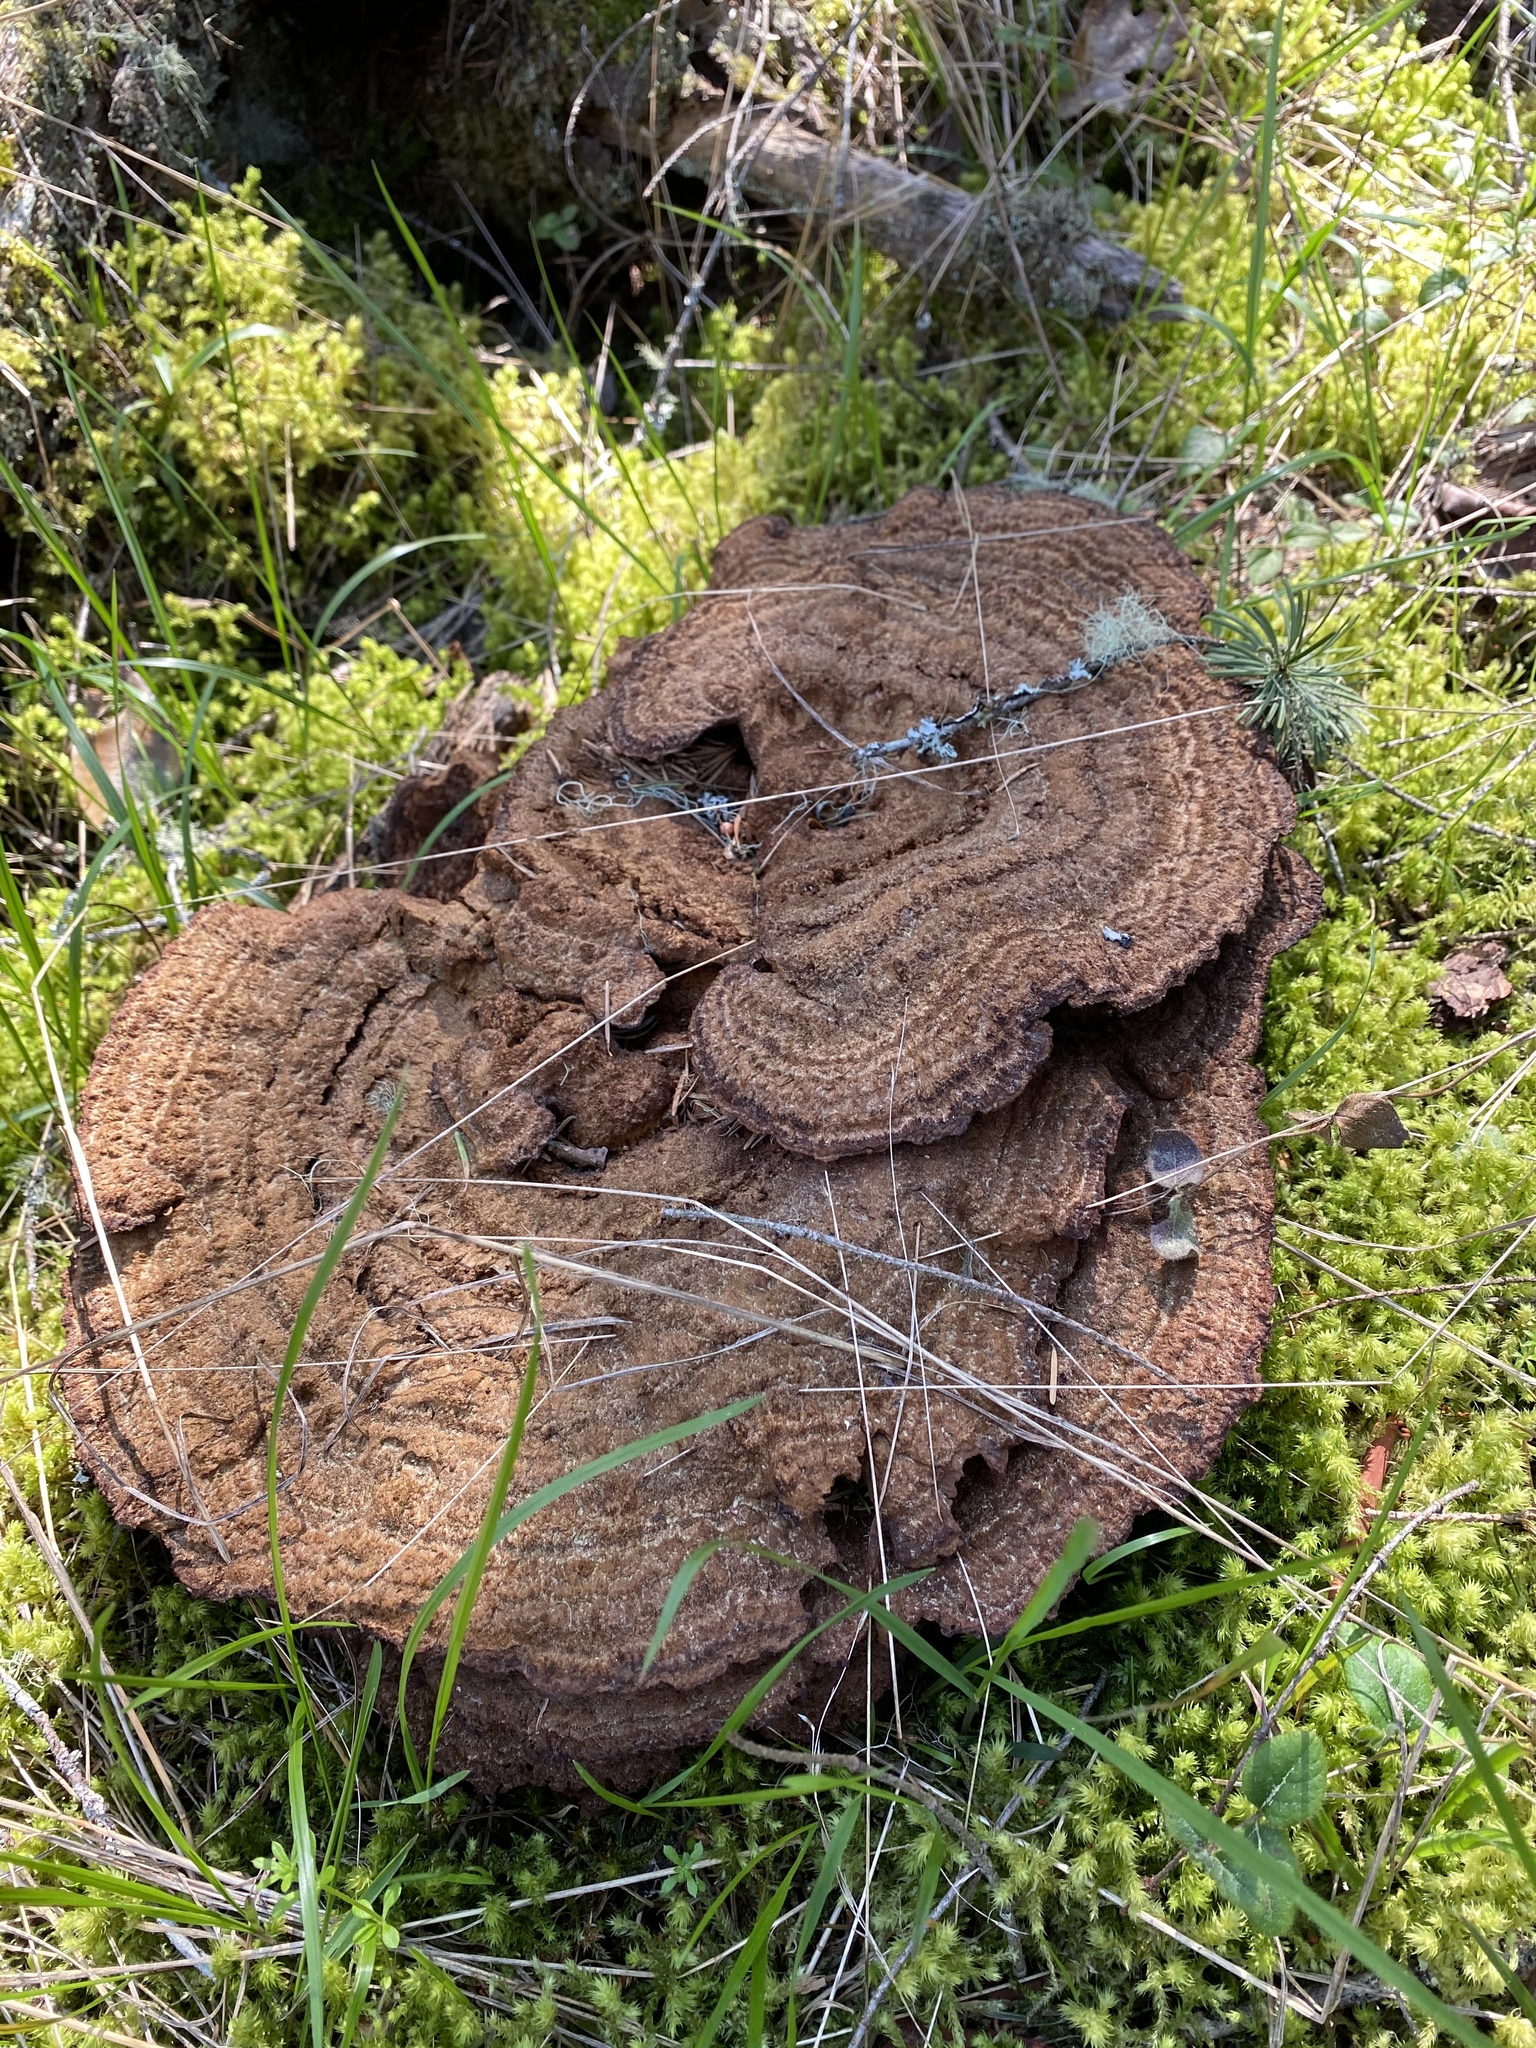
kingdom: Fungi
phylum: Basidiomycota
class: Agaricomycetes
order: Polyporales
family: Laetiporaceae
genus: Phaeolus
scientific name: Phaeolus schweinitzii
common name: Dyer's mazegill
